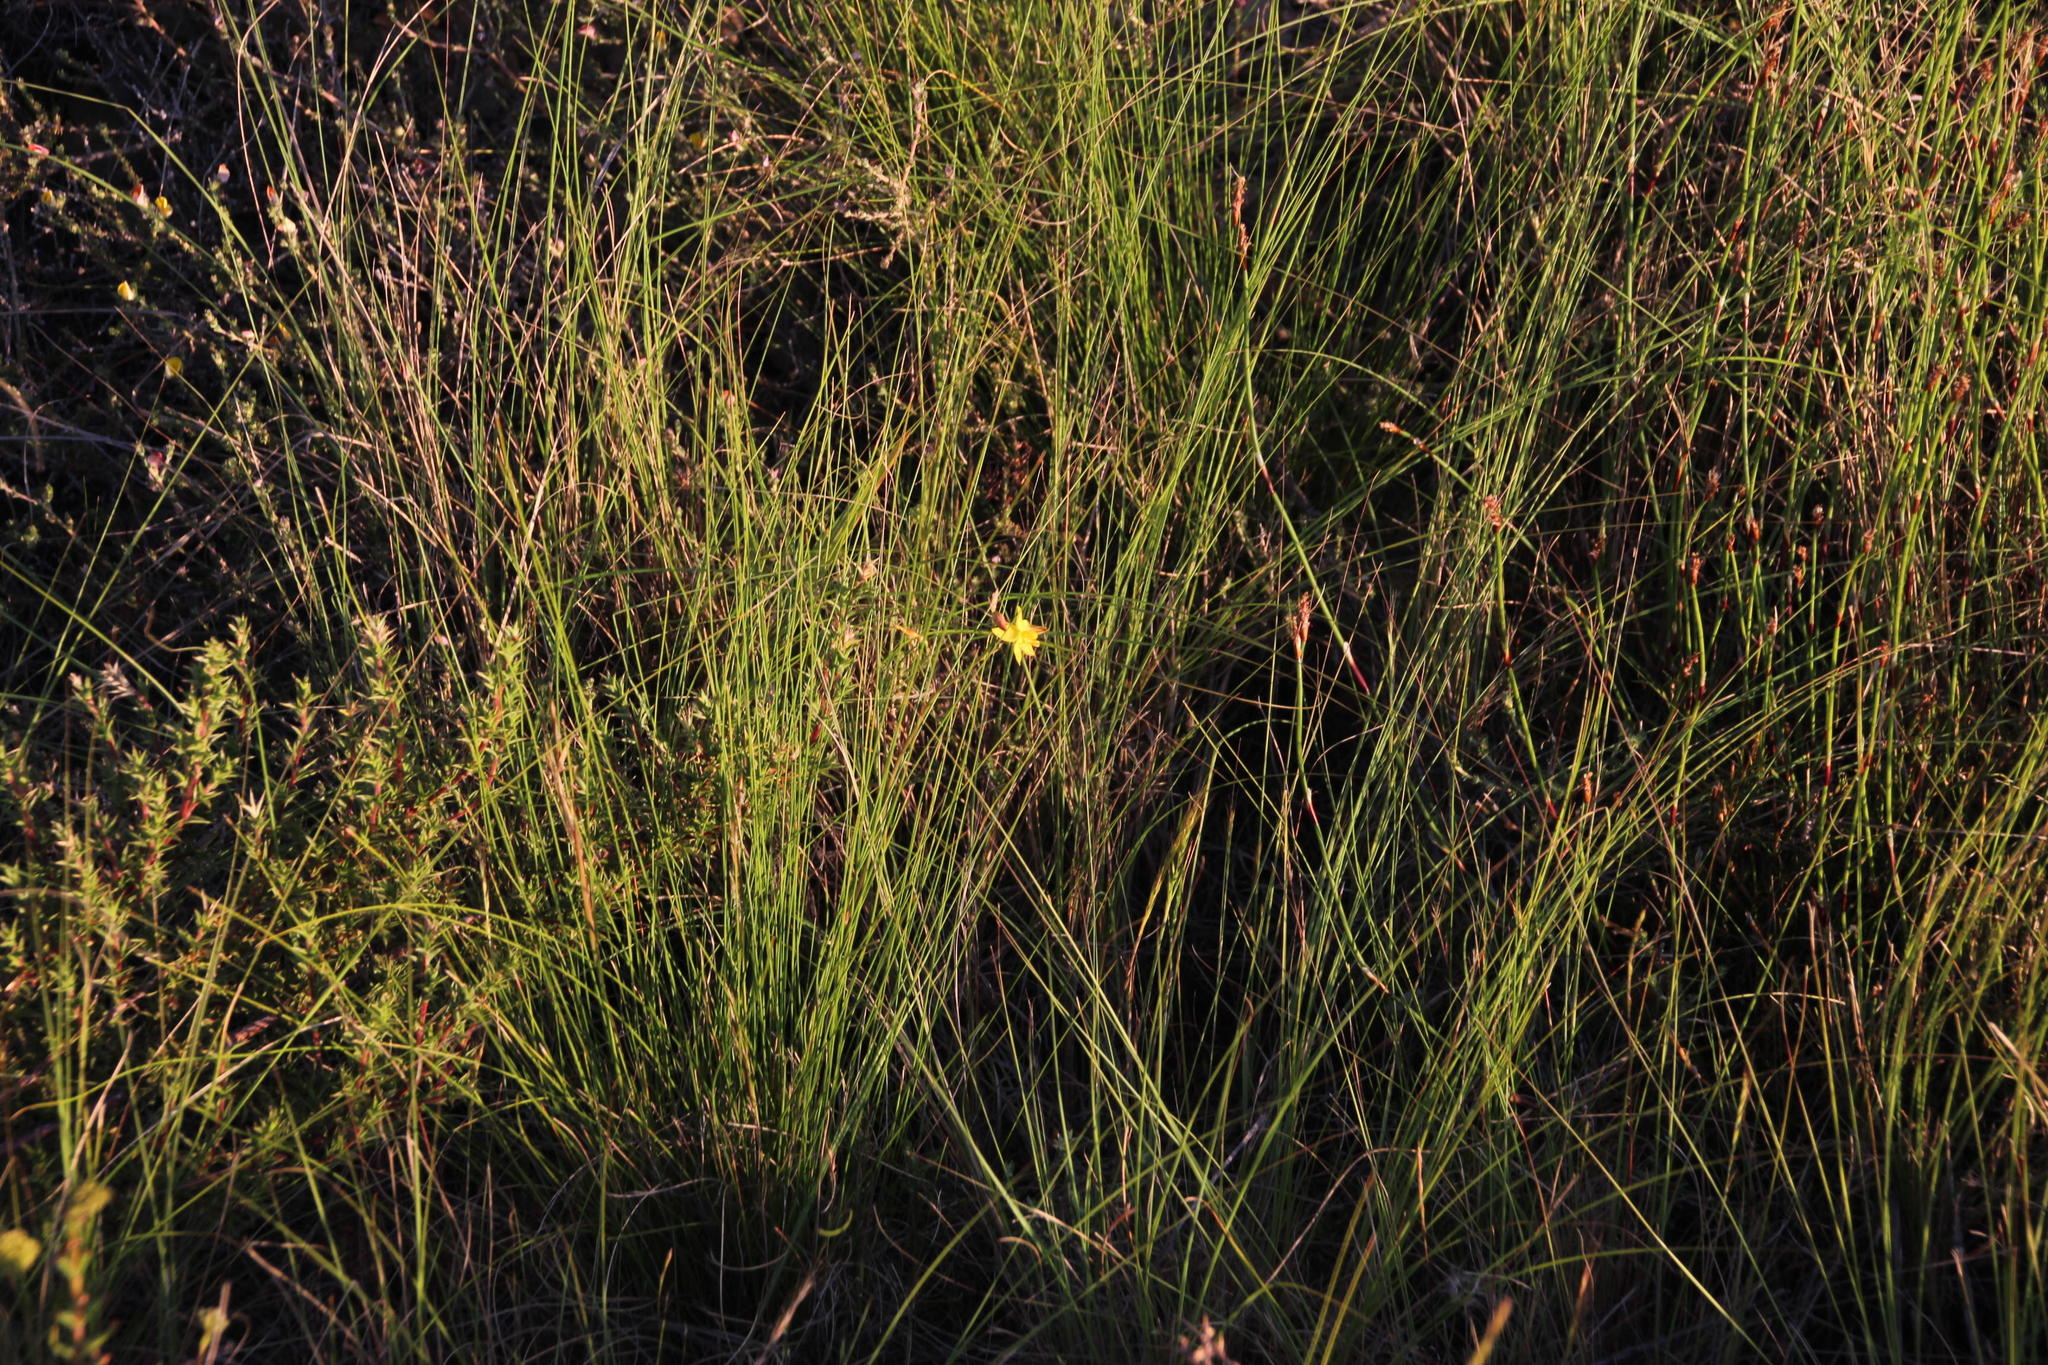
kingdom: Plantae
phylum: Tracheophyta
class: Liliopsida
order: Asparagales
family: Tecophilaeaceae
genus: Cyanella
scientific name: Cyanella lutea
